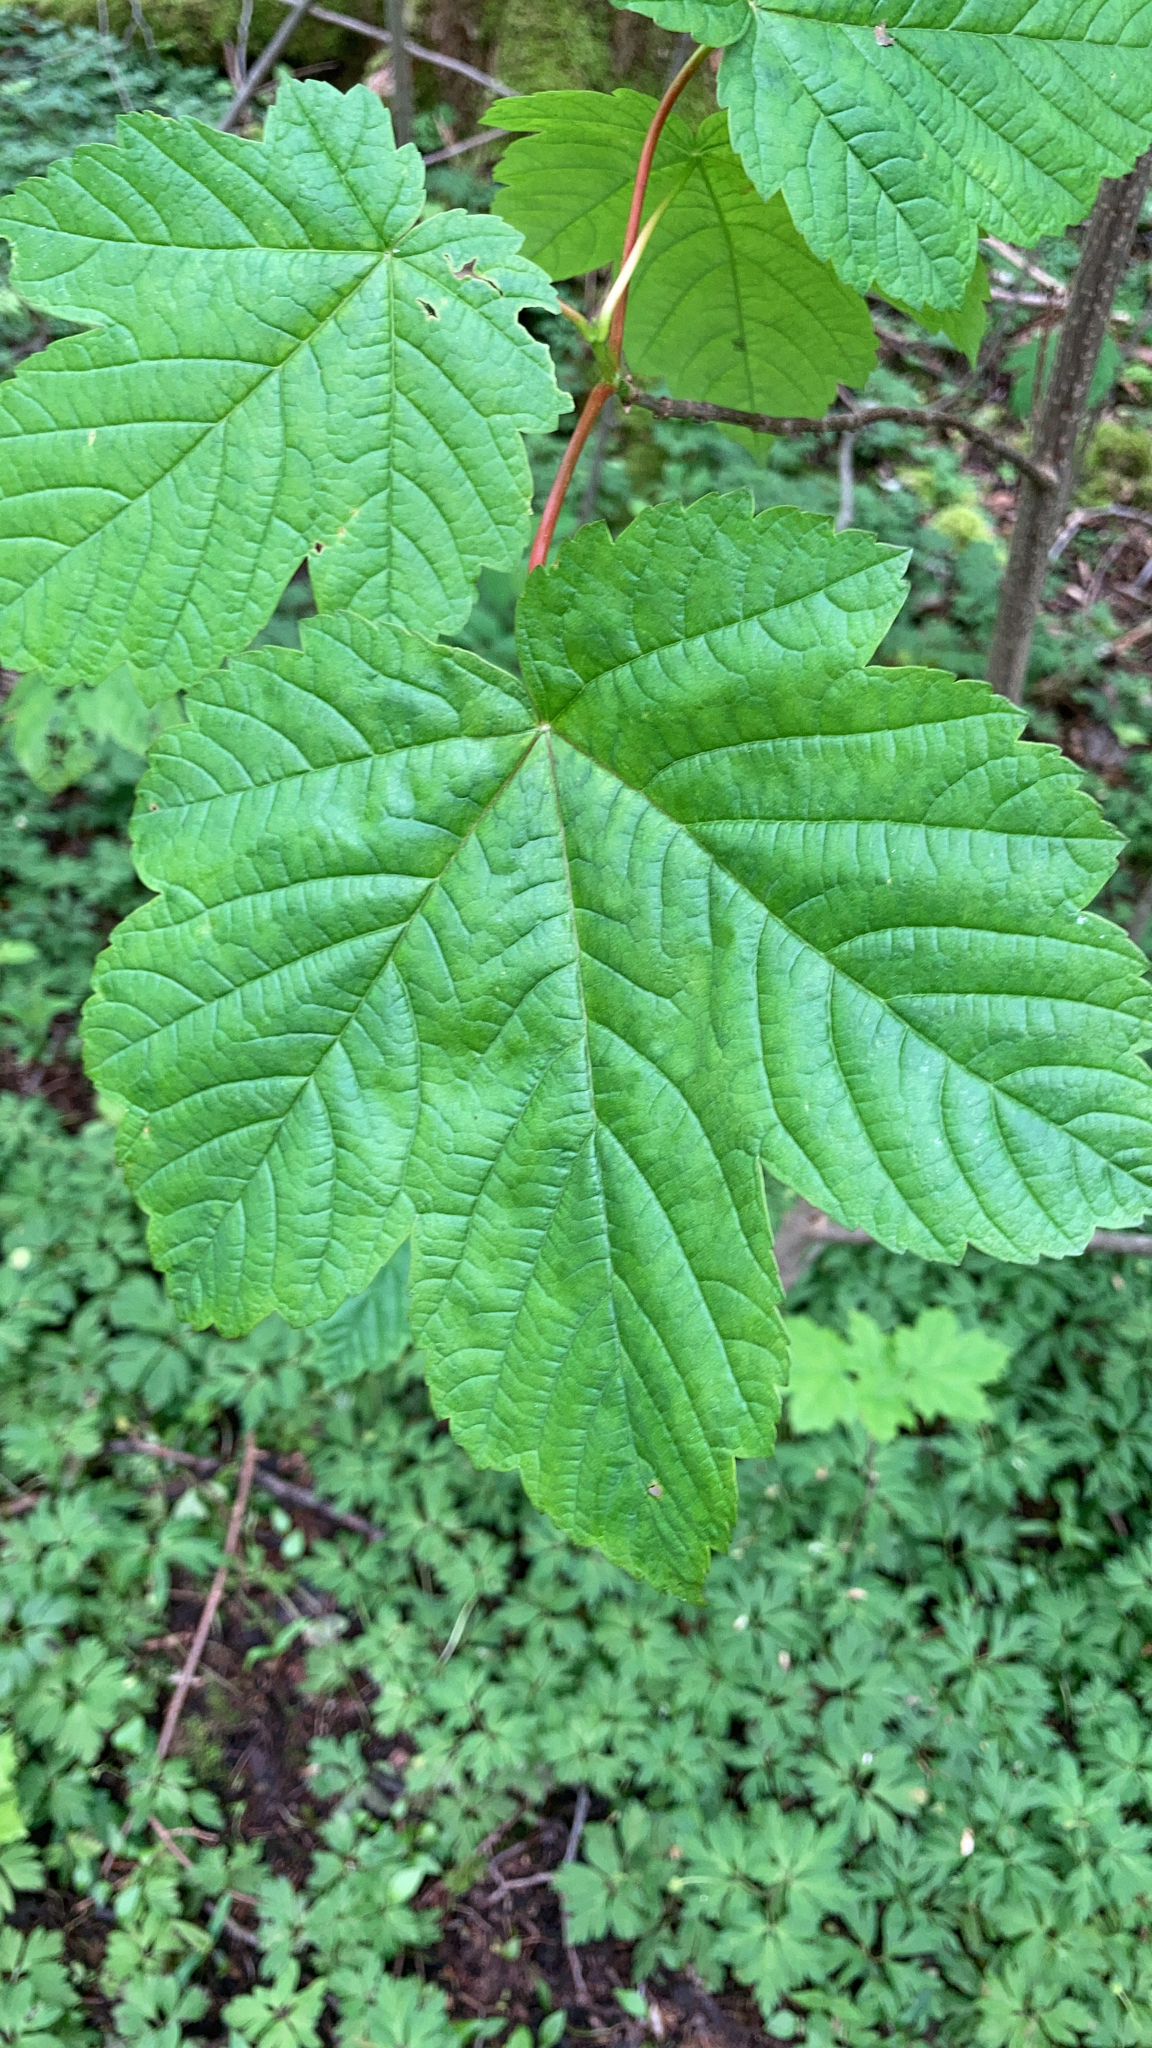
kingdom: Plantae
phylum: Tracheophyta
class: Magnoliopsida
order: Sapindales
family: Sapindaceae
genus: Acer
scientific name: Acer pseudoplatanus
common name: Sycamore
